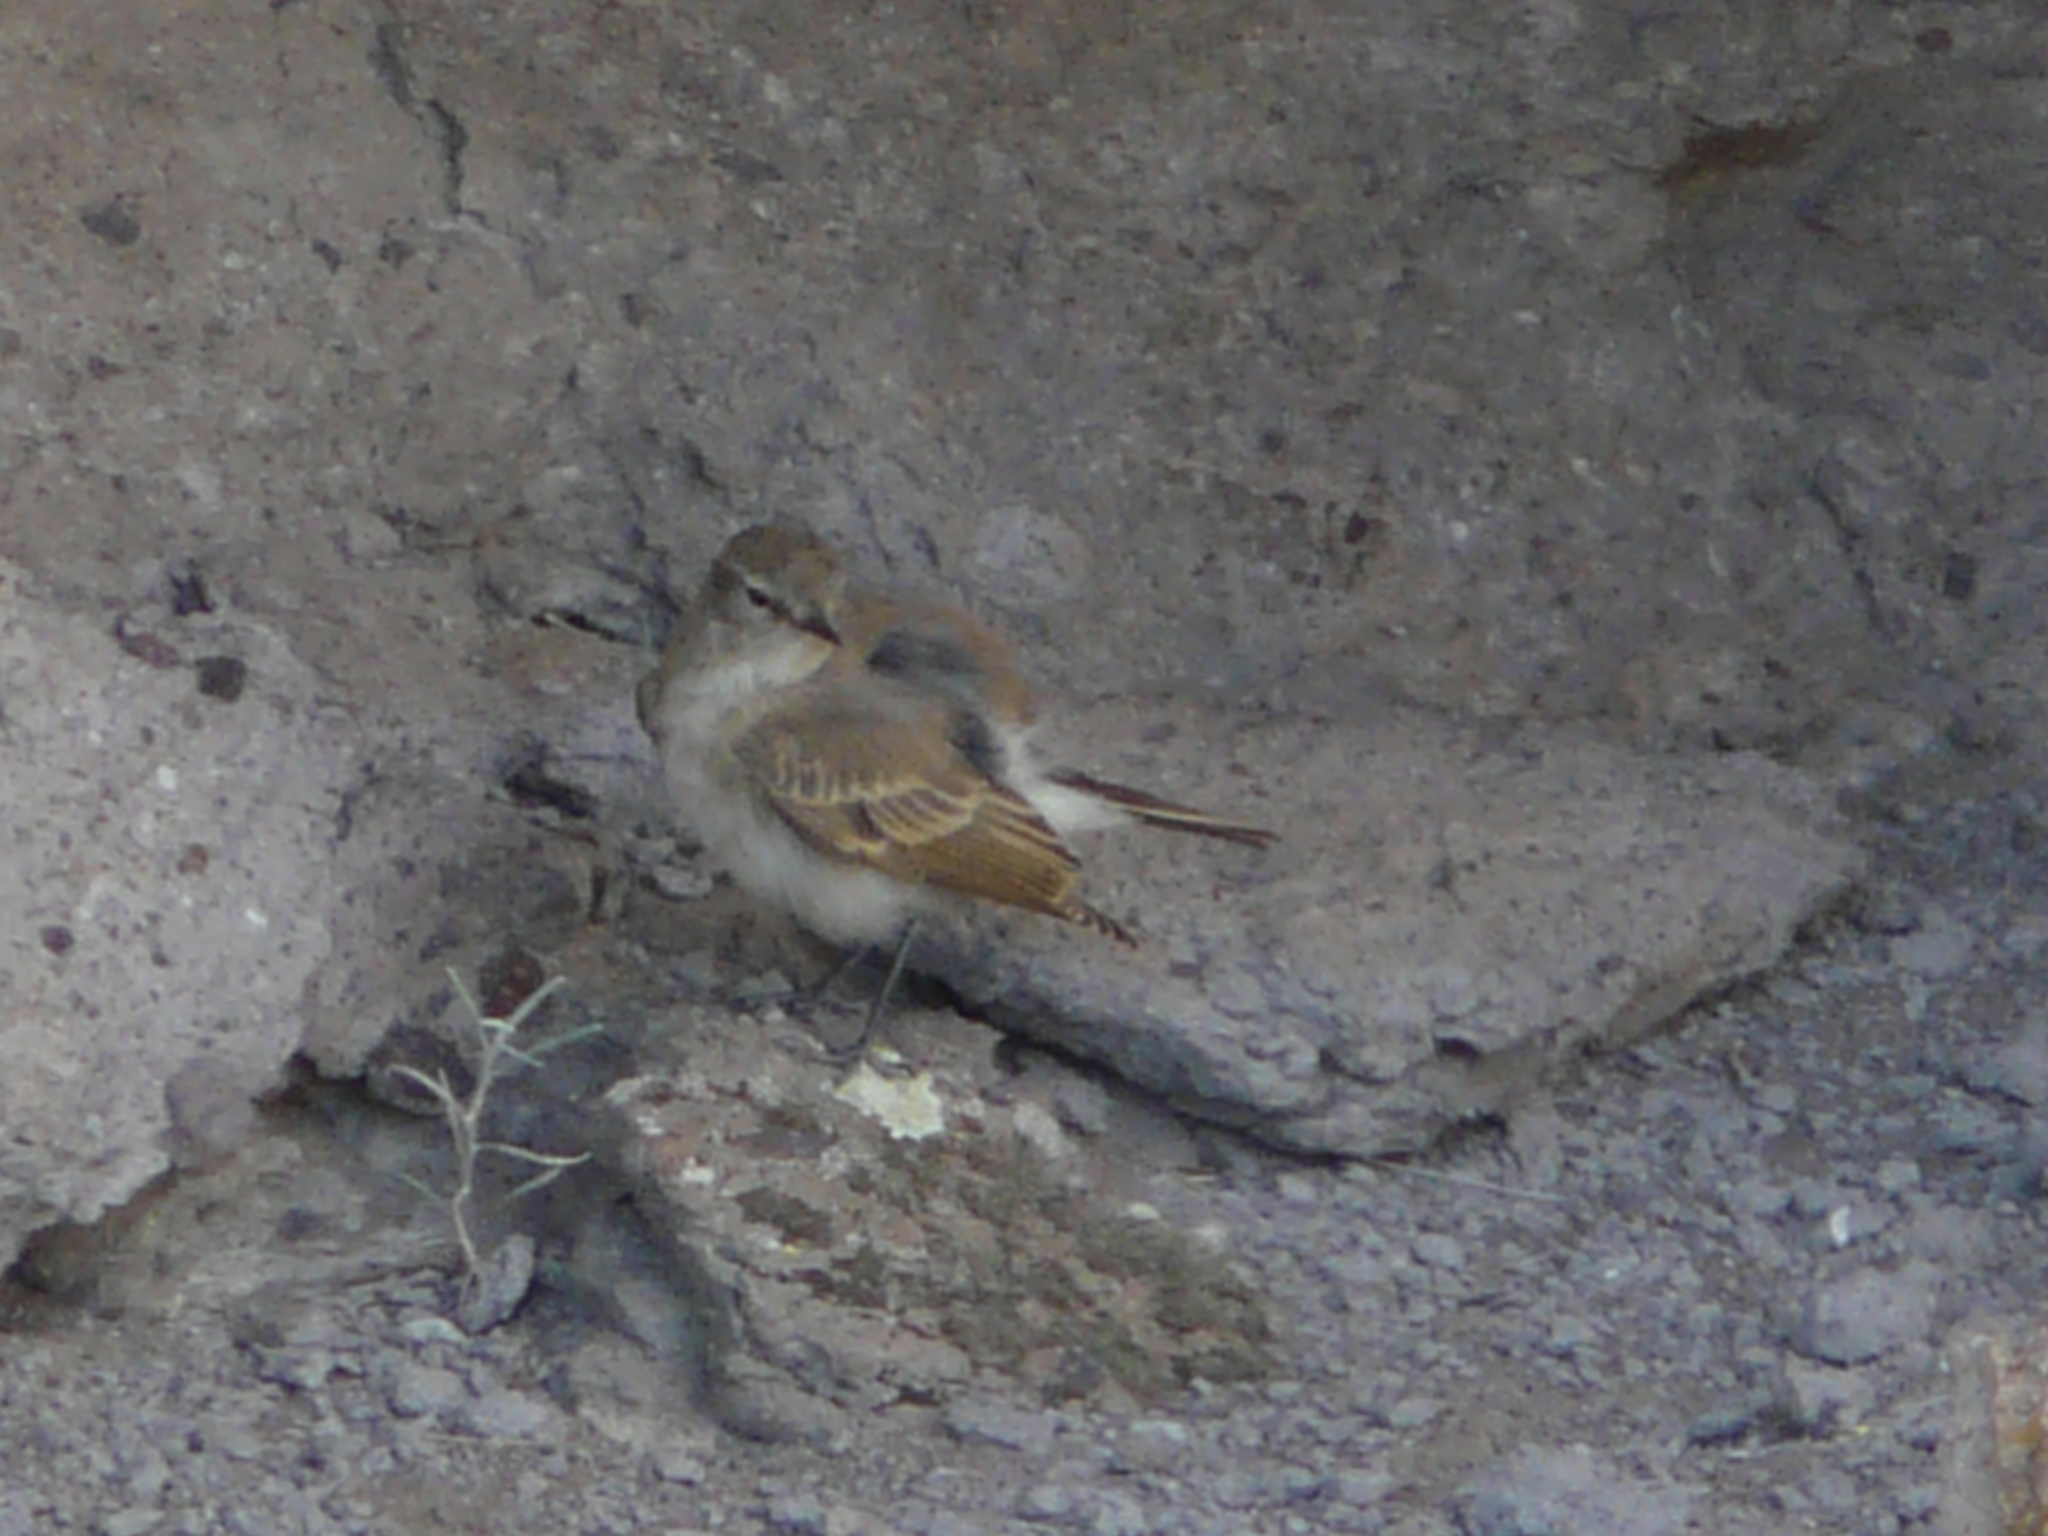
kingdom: Animalia
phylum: Chordata
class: Aves
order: Passeriformes
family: Tyrannidae
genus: Muscisaxicola
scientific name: Muscisaxicola maculirostris
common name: Spot-billed ground tyrant
